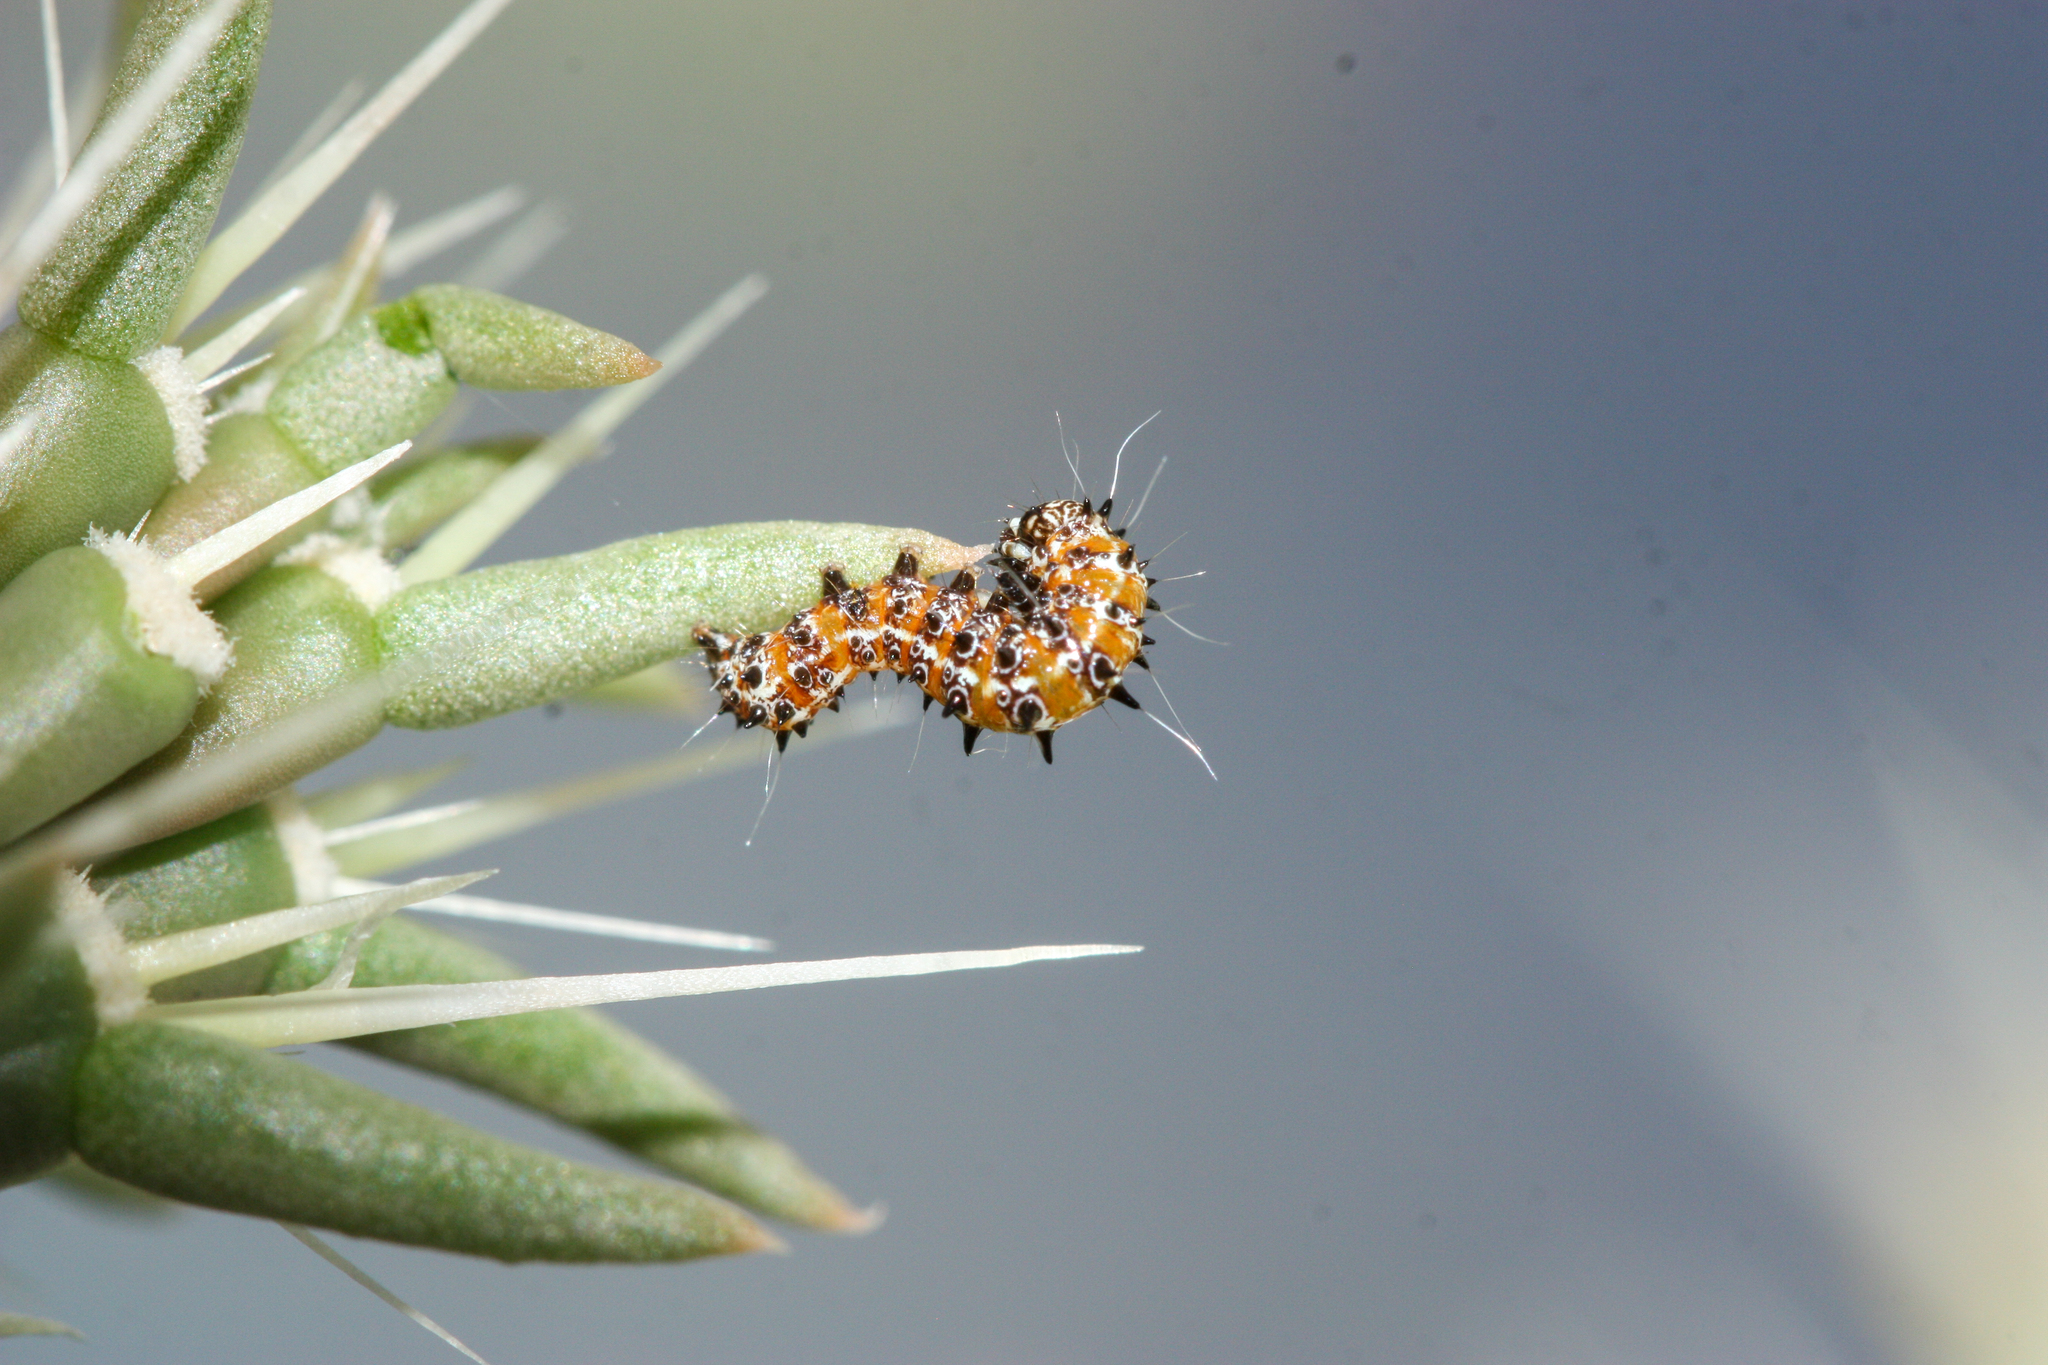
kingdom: Animalia
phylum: Arthropoda
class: Insecta
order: Lepidoptera
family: Noctuidae
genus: Euscirrhopterus
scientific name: Euscirrhopterus cosyra
